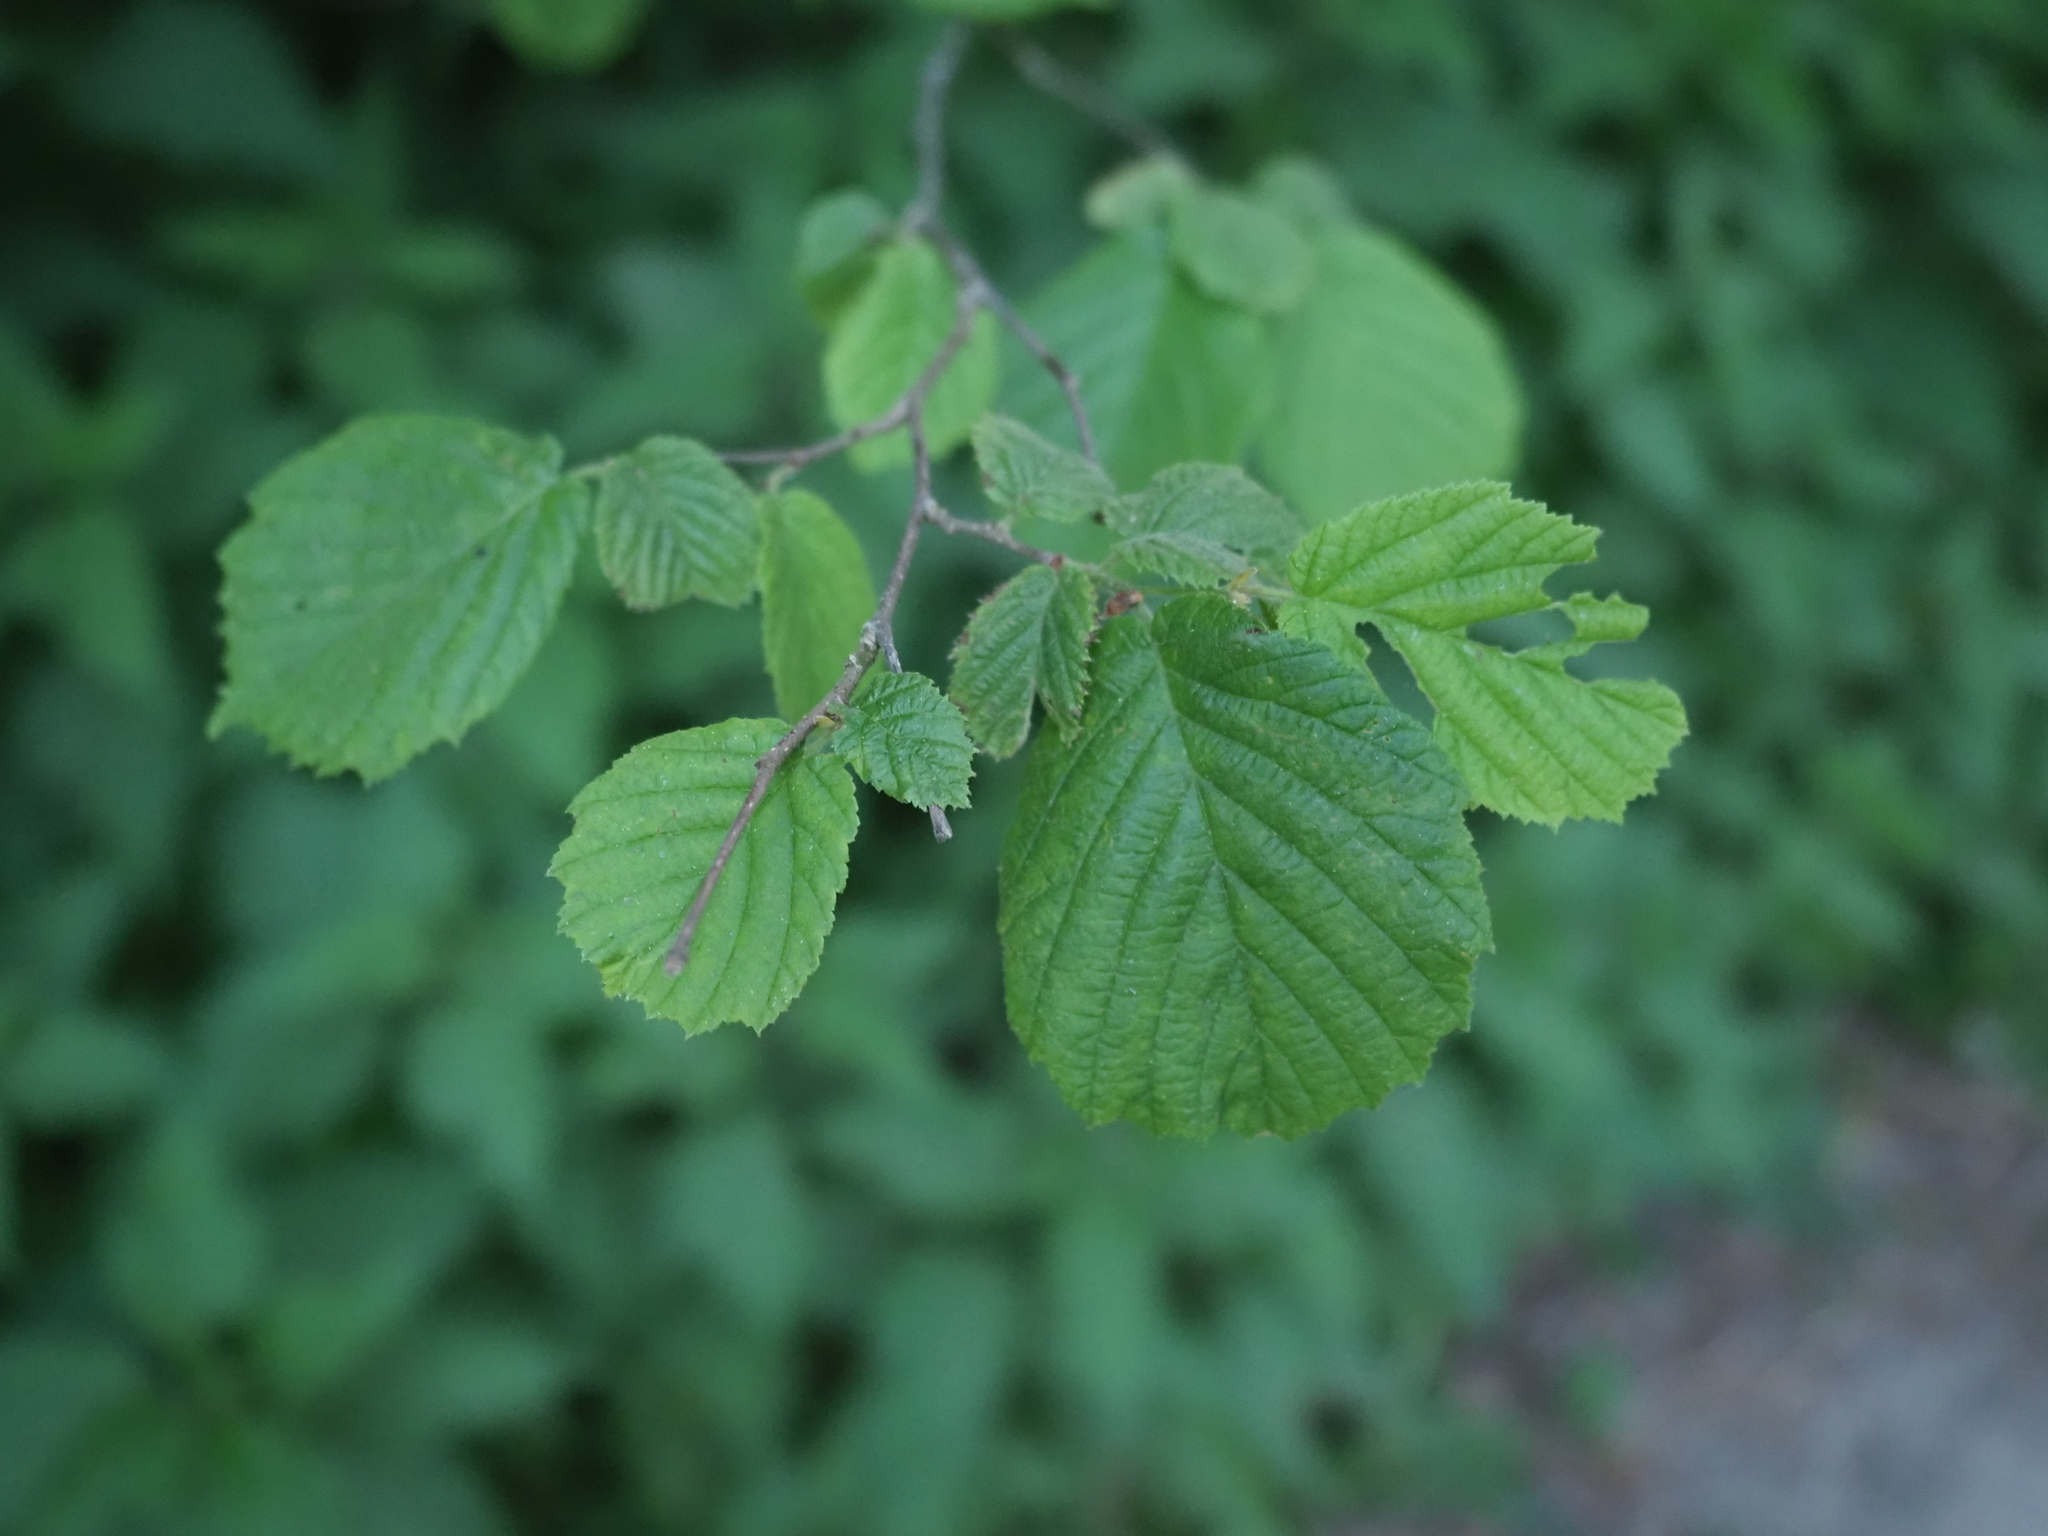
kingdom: Plantae
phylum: Tracheophyta
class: Magnoliopsida
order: Fagales
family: Betulaceae
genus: Corylus
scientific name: Corylus avellana
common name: European hazel
